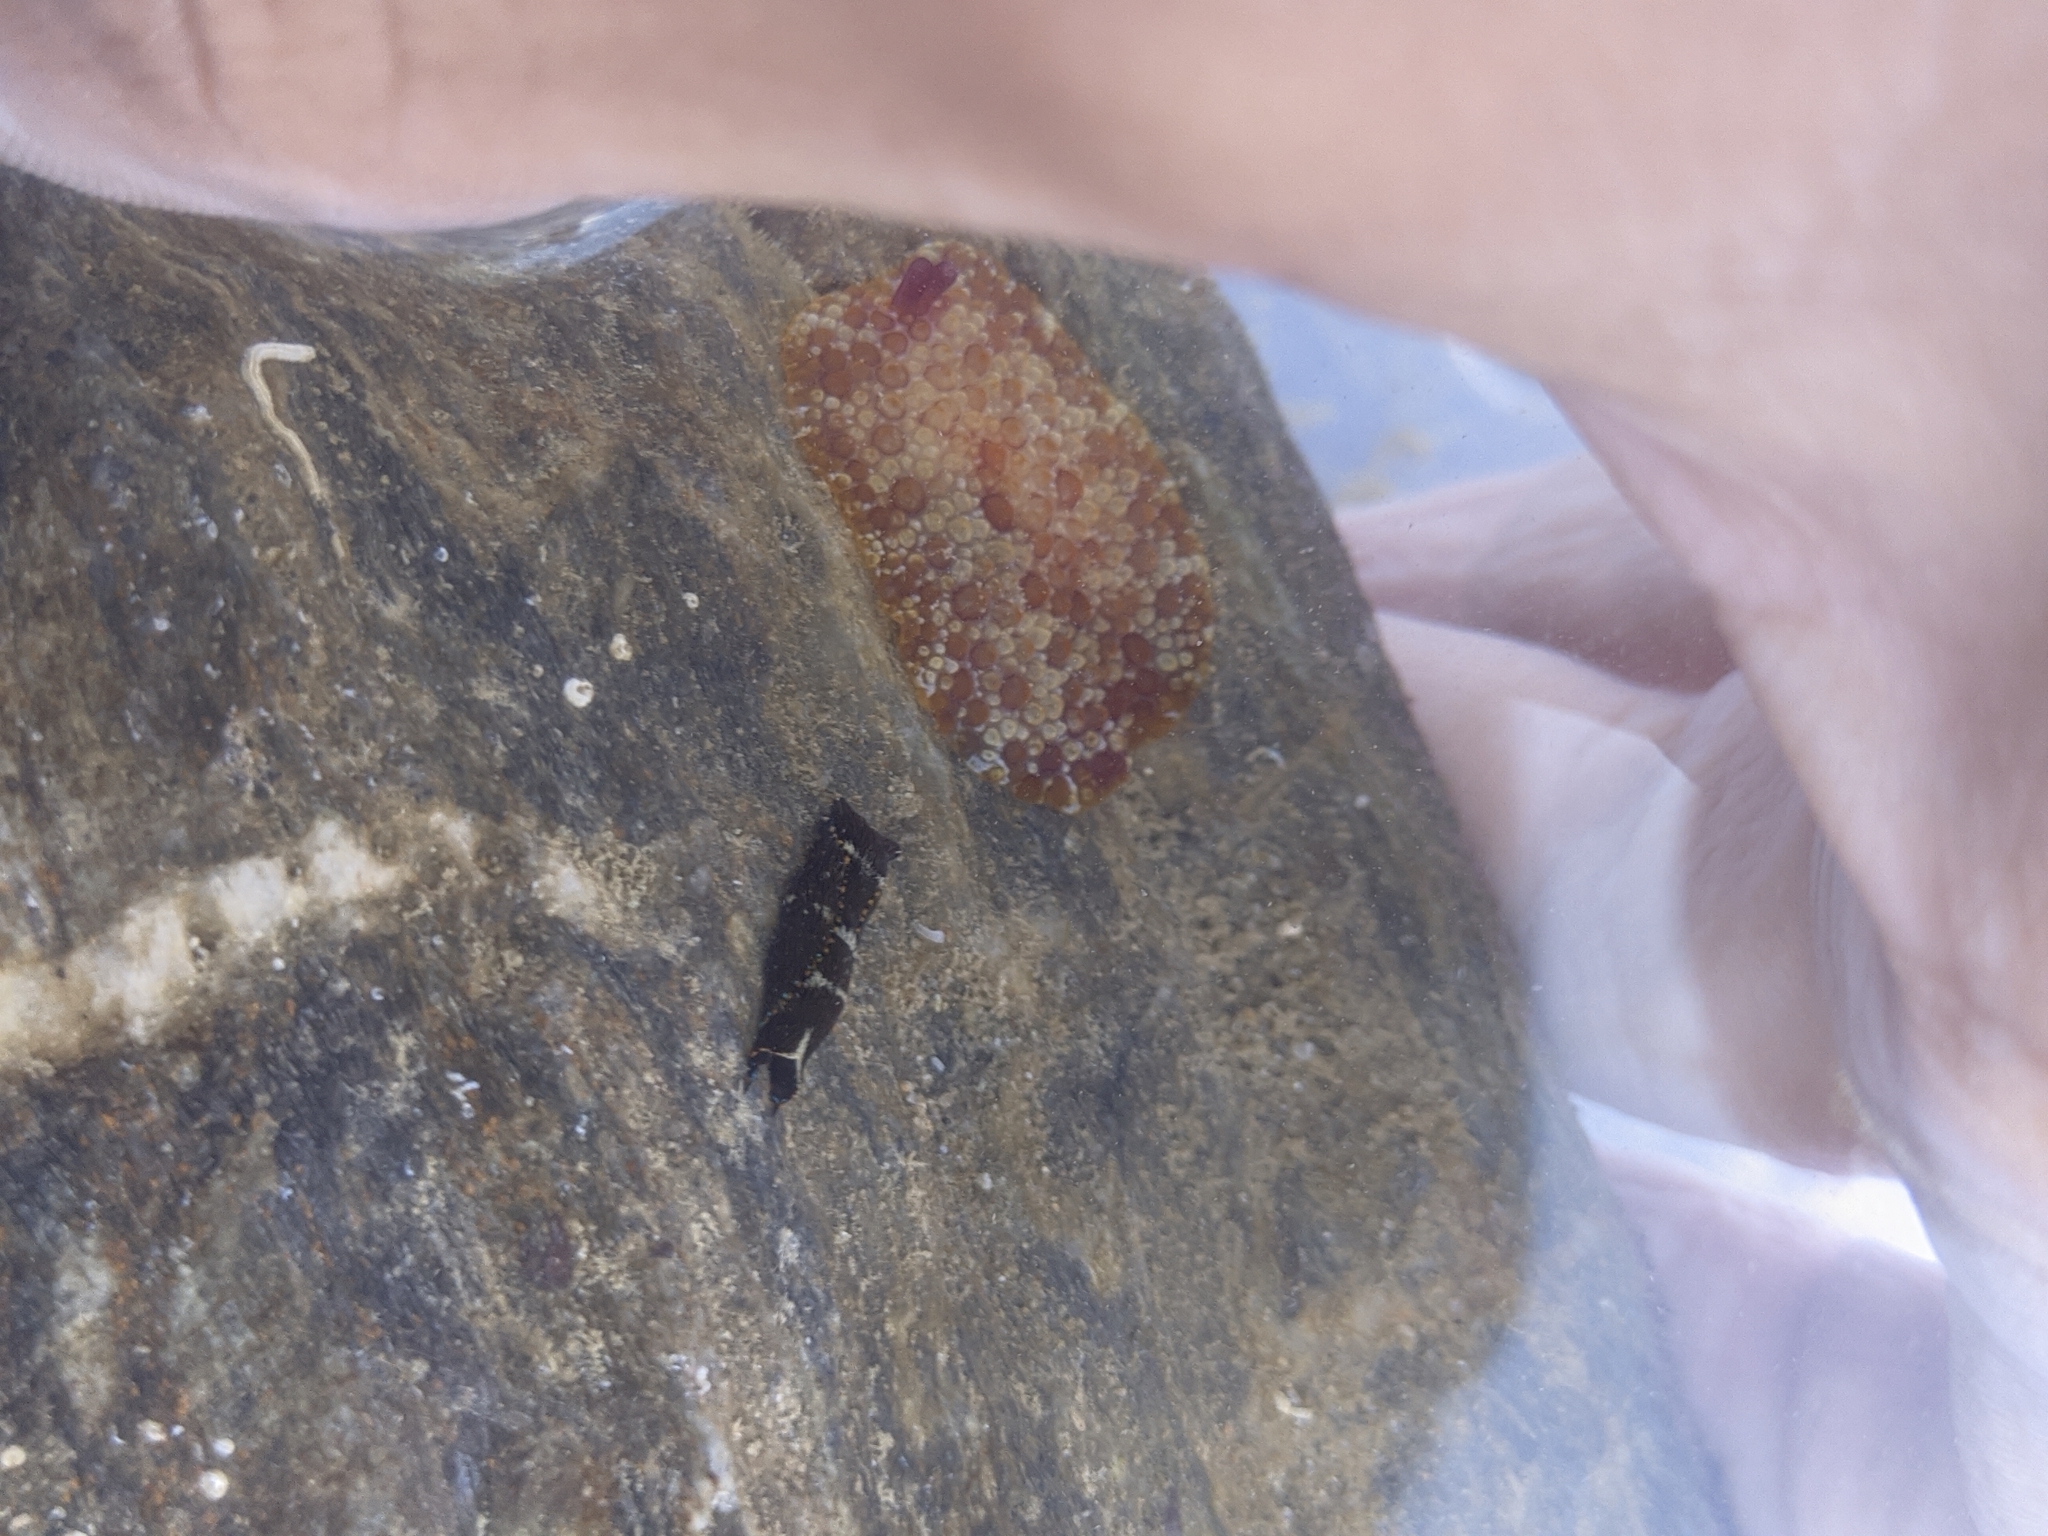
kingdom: Animalia
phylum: Mollusca
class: Gastropoda
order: Cephalaspidea
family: Aglajidae
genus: Navanax
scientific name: Navanax gemmatus
